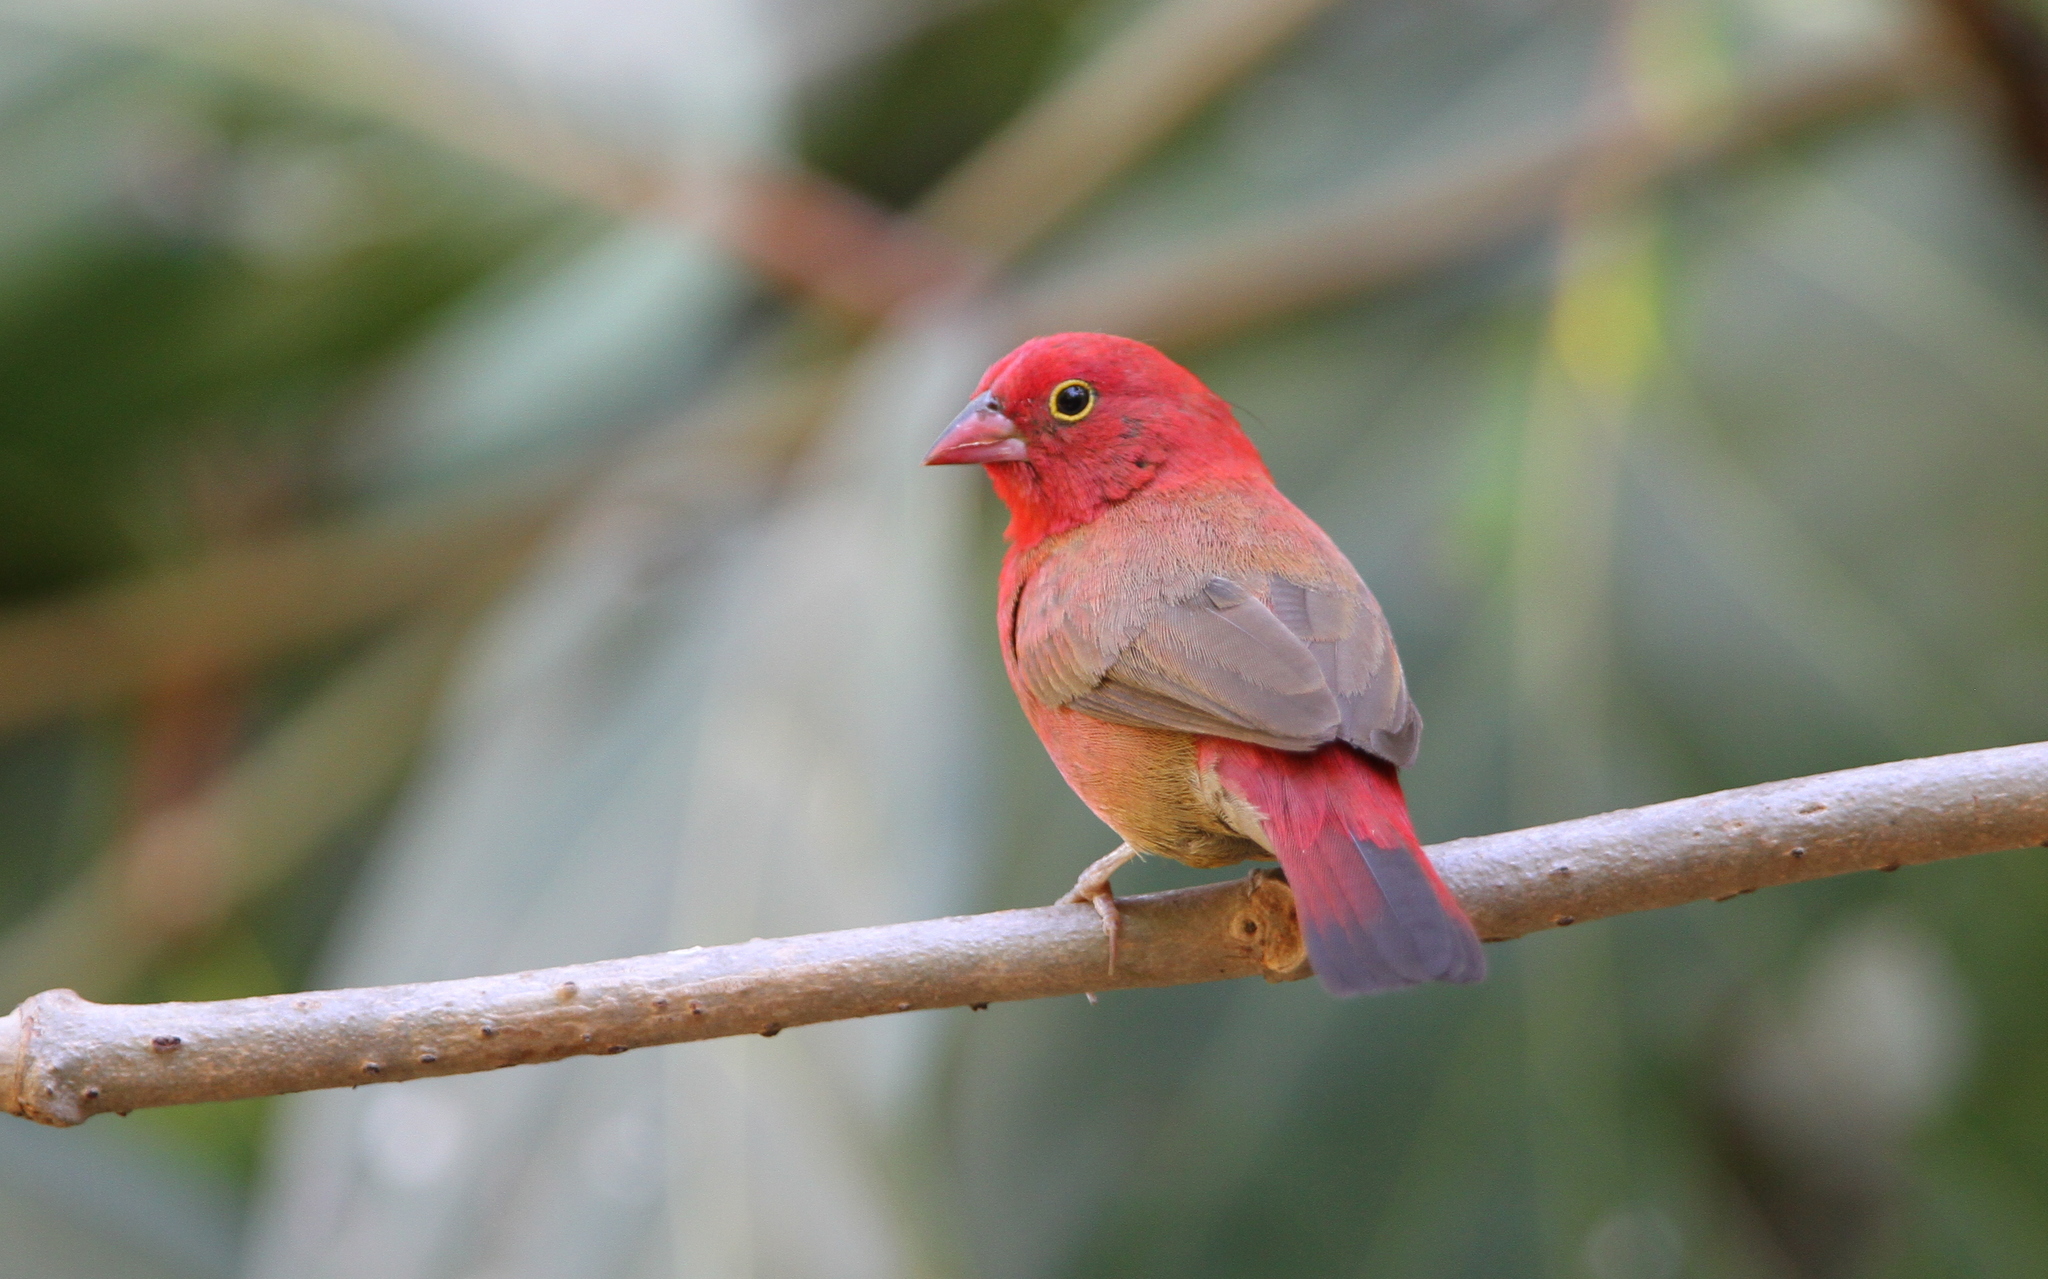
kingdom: Animalia
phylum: Chordata
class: Aves
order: Passeriformes
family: Estrildidae
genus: Lagonosticta
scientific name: Lagonosticta senegala
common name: Red-billed firefinch
